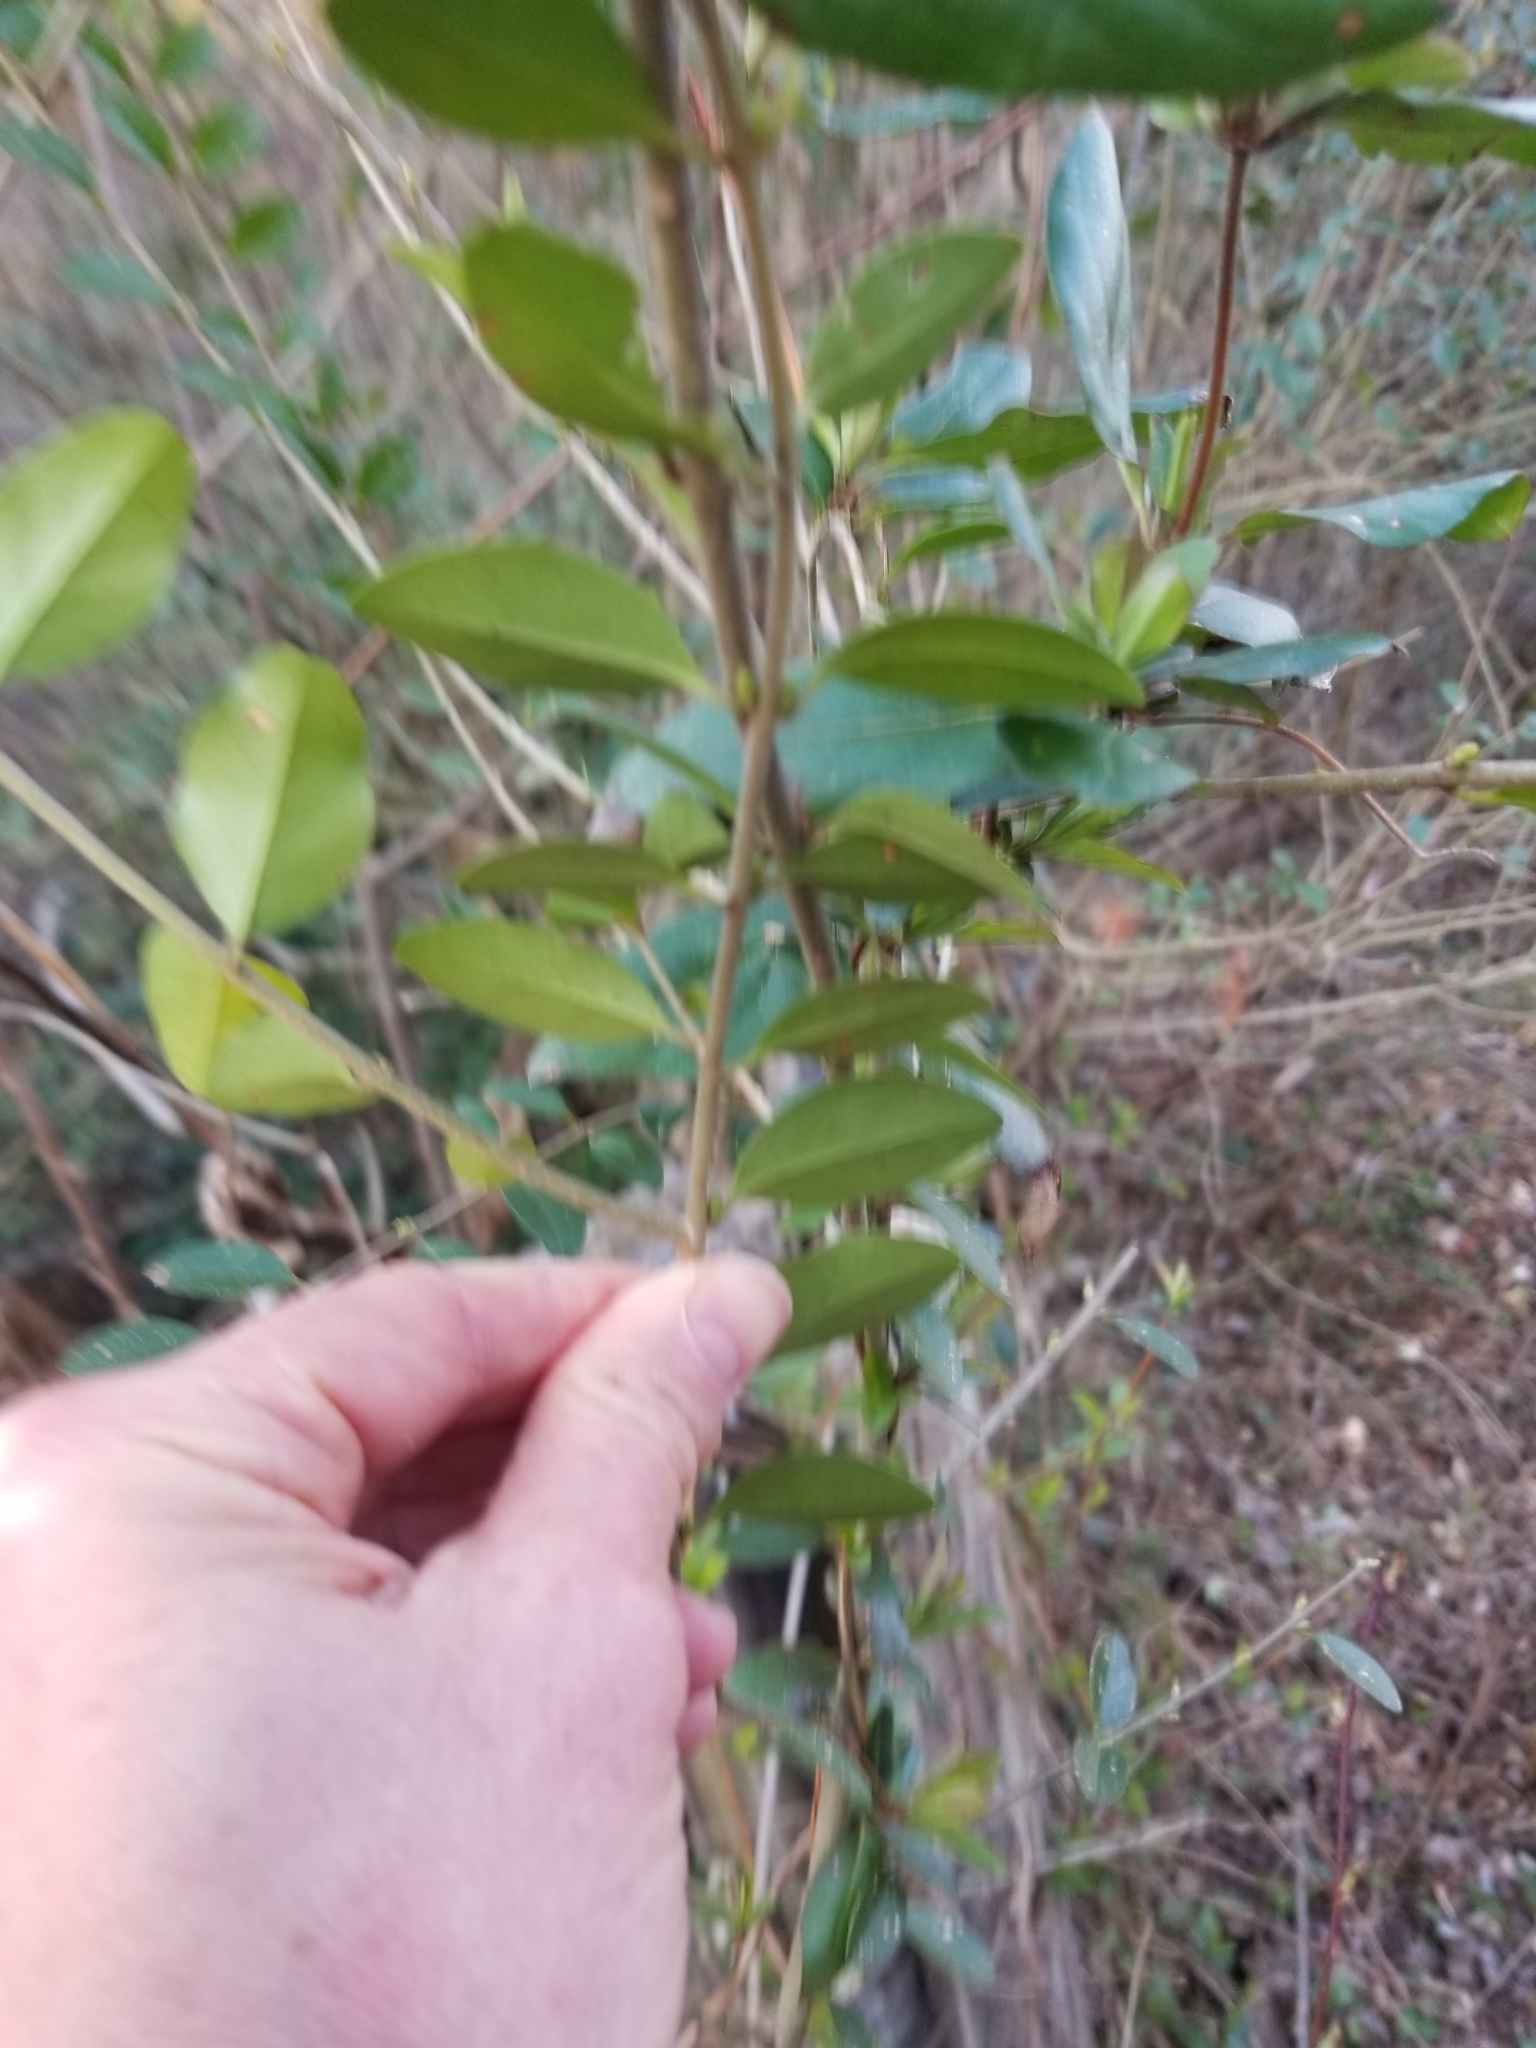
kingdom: Plantae
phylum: Tracheophyta
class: Magnoliopsida
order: Lamiales
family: Oleaceae
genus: Ligustrum
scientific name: Ligustrum sinense
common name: Chinese privet
